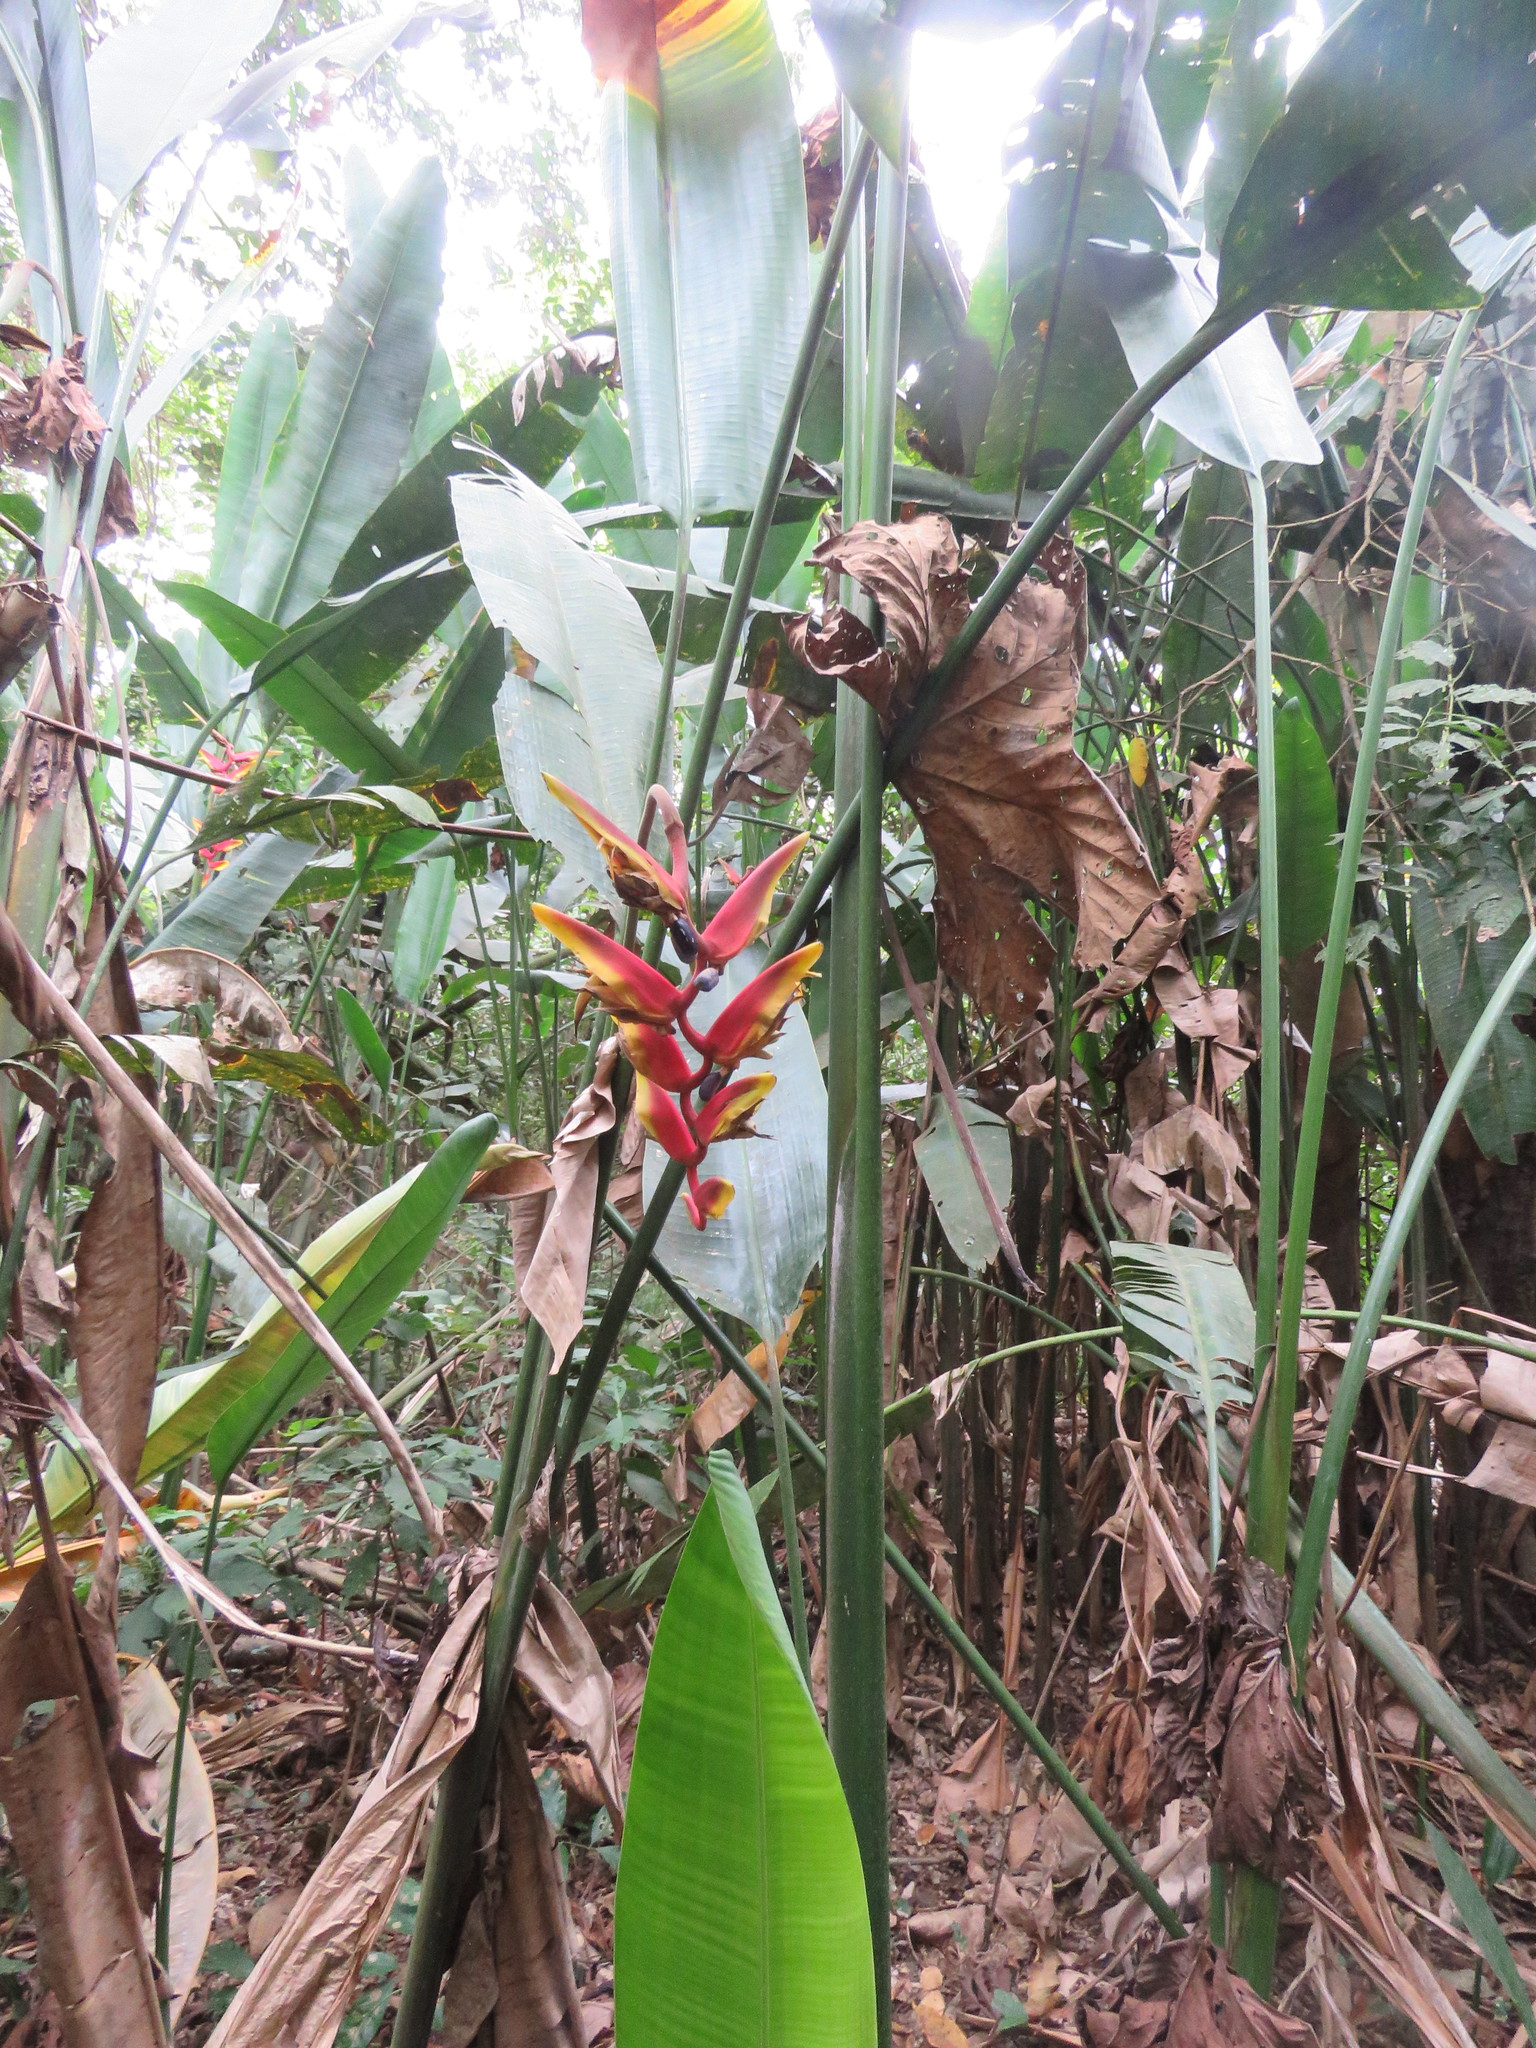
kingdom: Plantae
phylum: Tracheophyta
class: Liliopsida
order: Zingiberales
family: Heliconiaceae
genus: Heliconia
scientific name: Heliconia marginata
